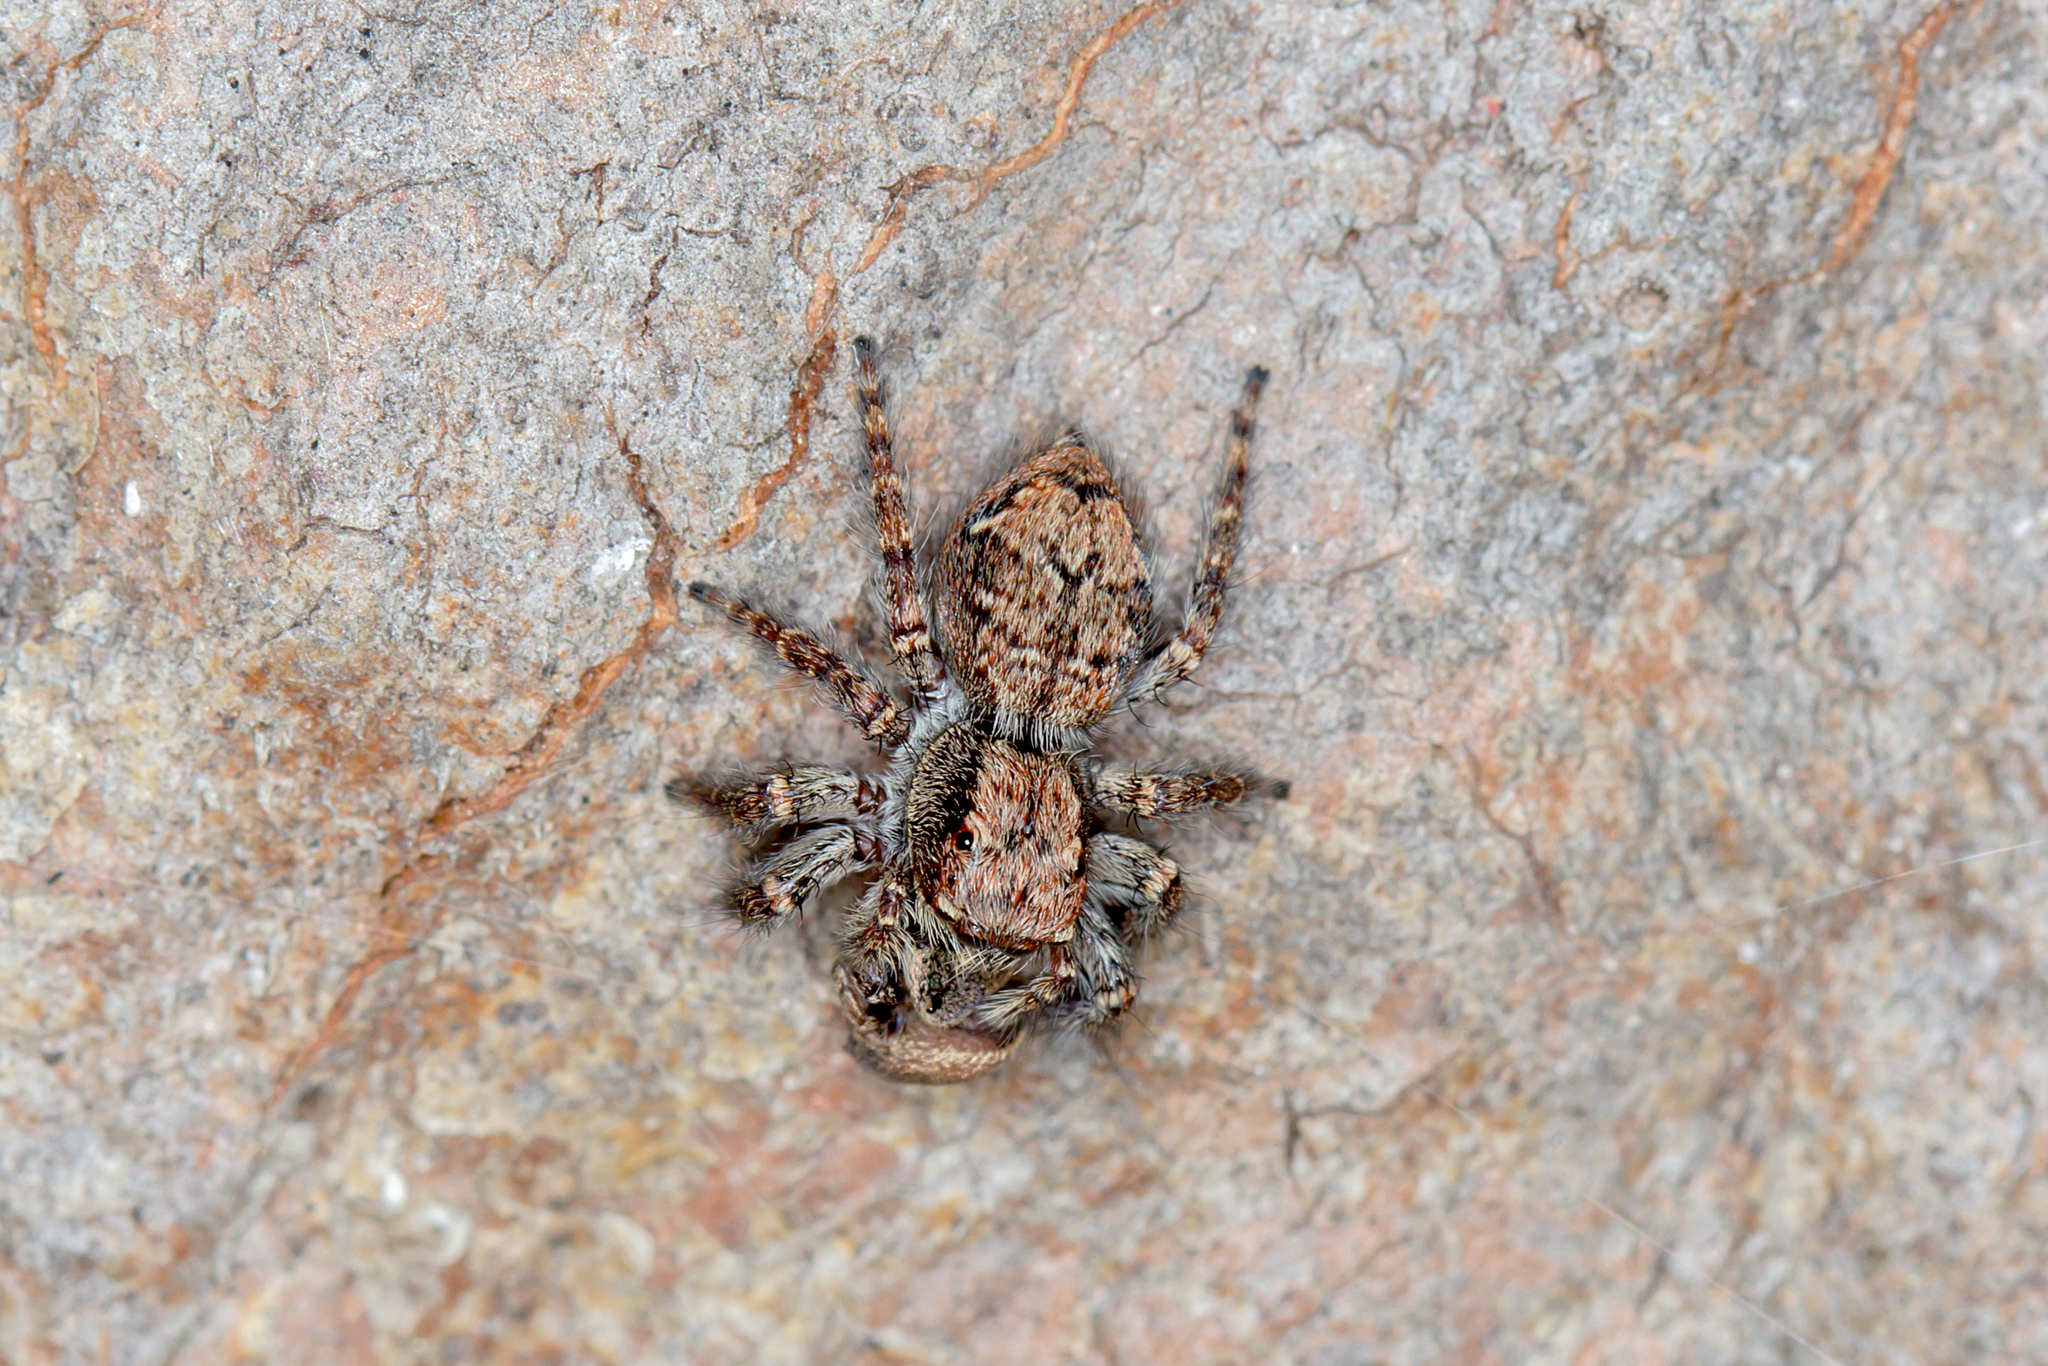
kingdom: Animalia
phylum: Arthropoda
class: Arachnida
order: Araneae
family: Salticidae
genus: Servaea
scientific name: Servaea incana
